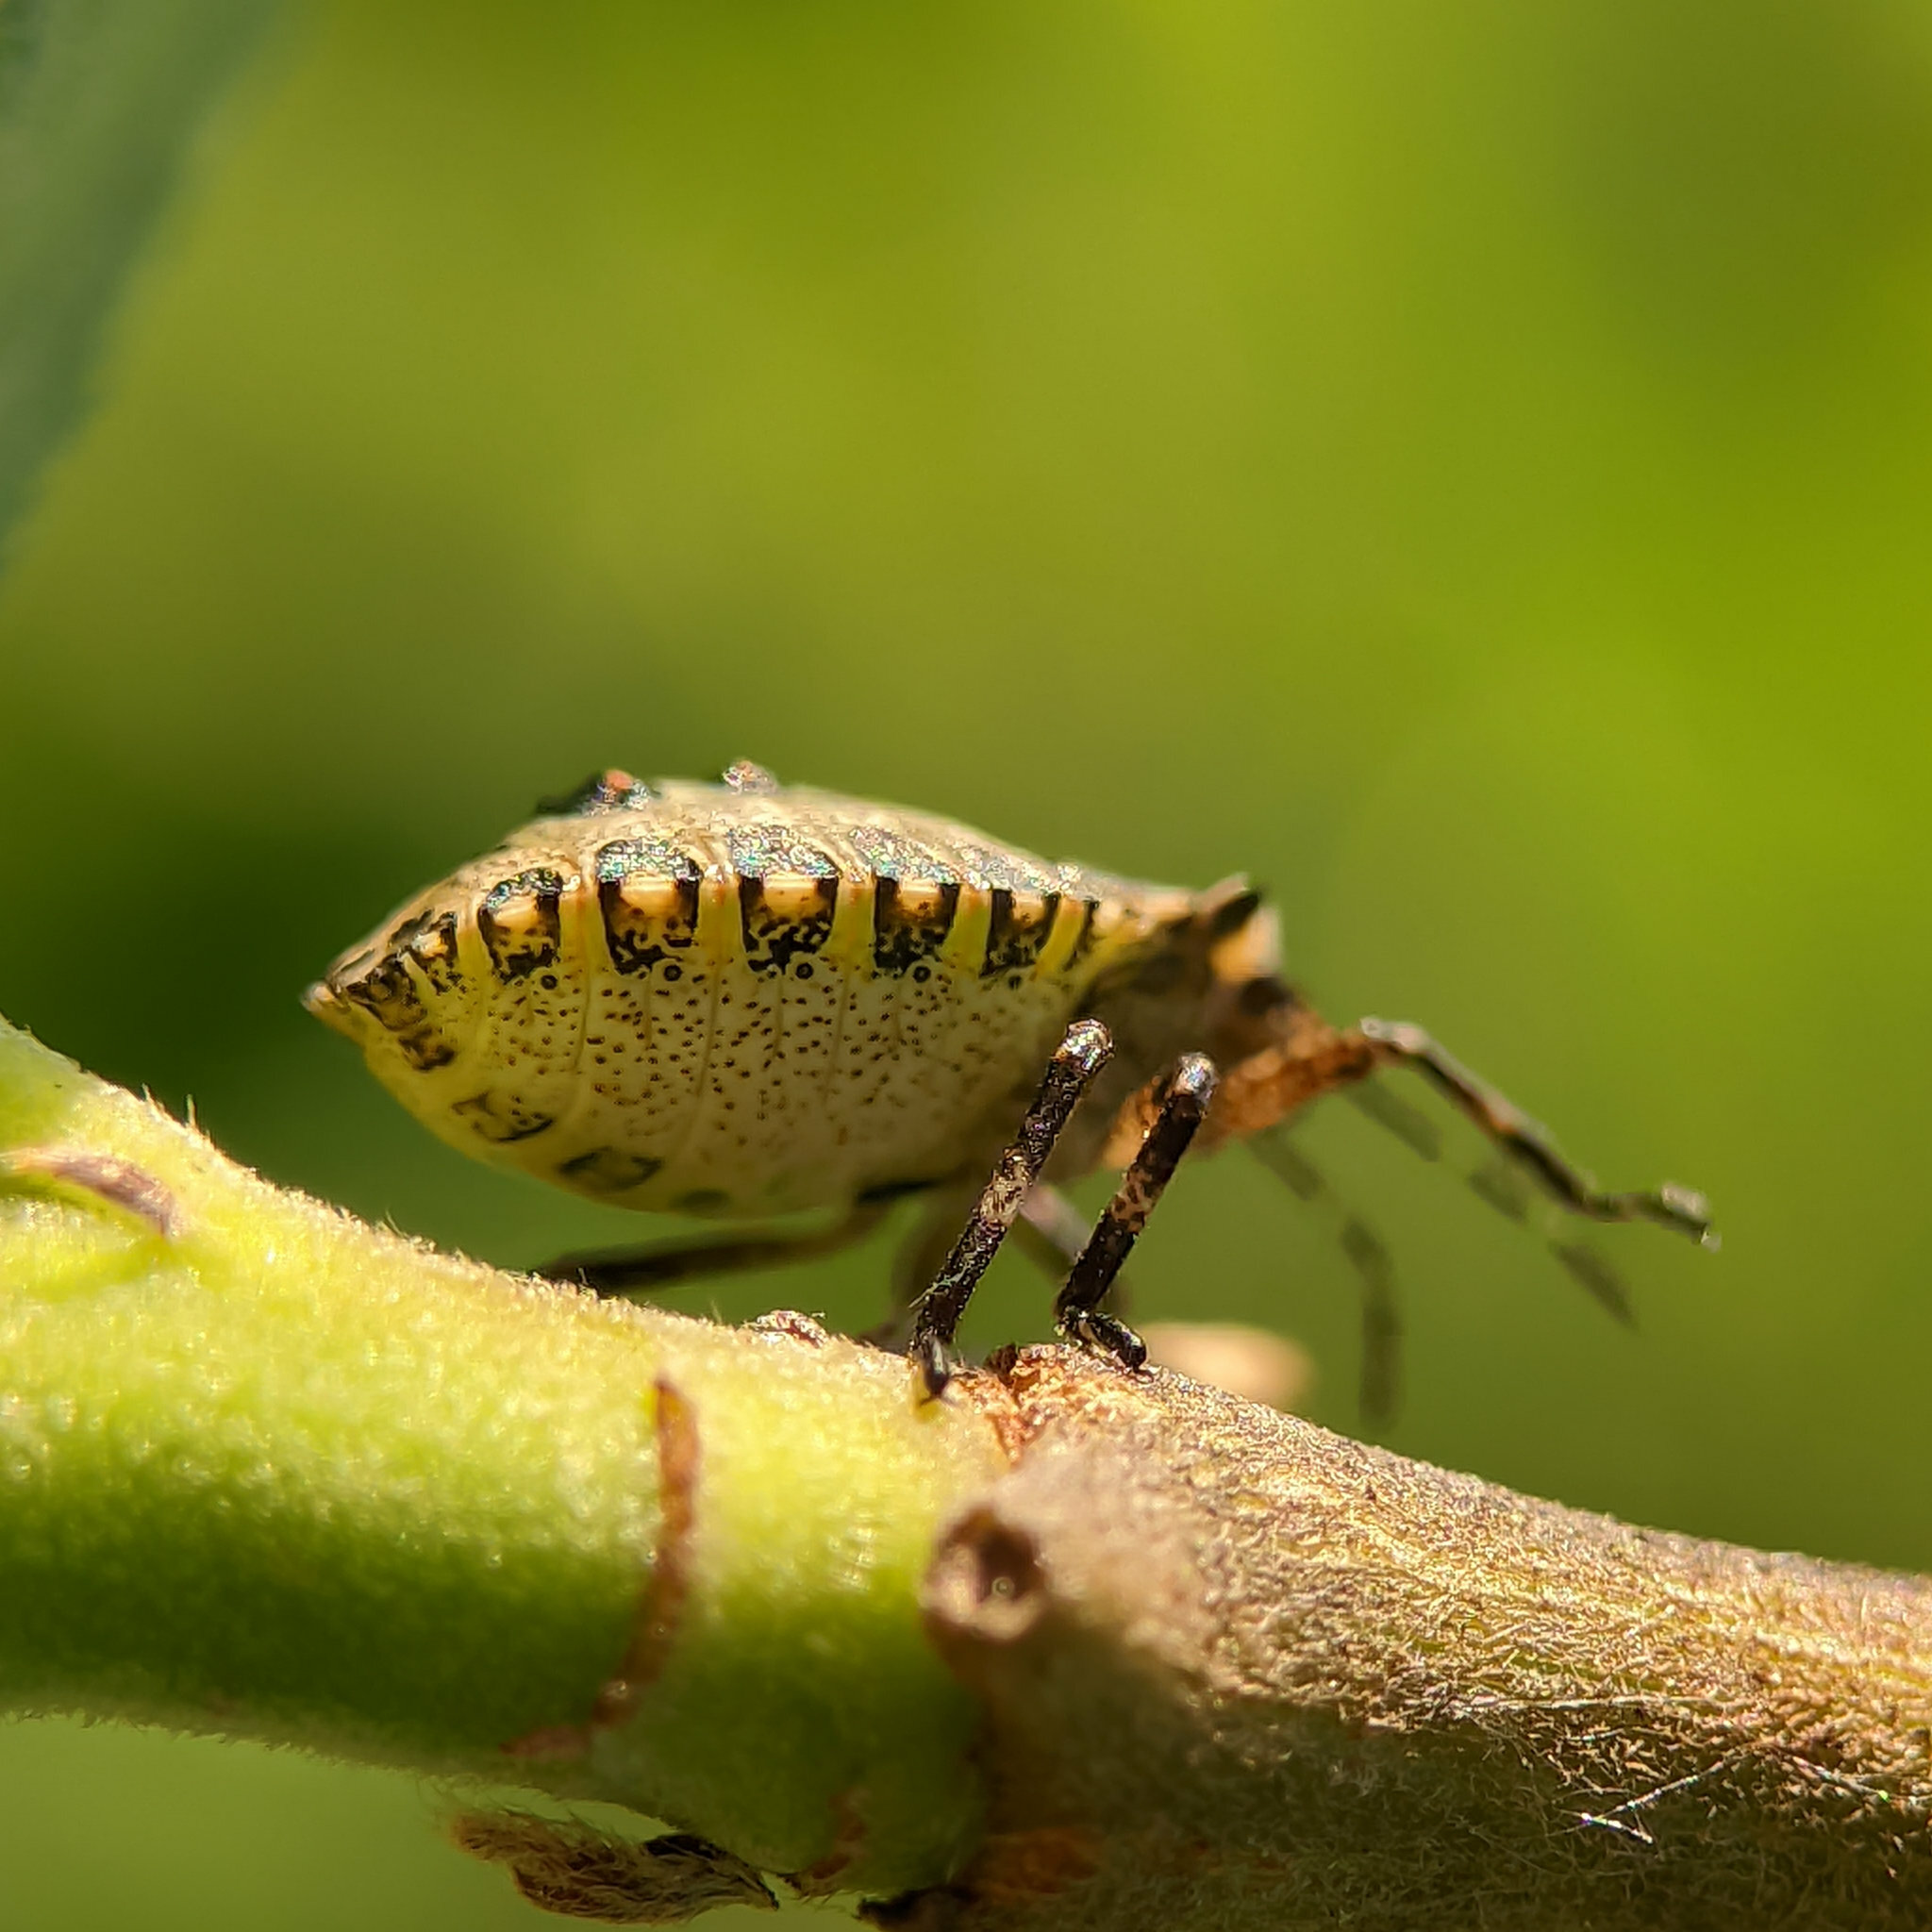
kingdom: Animalia
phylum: Arthropoda
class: Insecta
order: Hemiptera
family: Pentatomidae
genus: Pentatoma
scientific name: Pentatoma rufipes
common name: Forest bug
